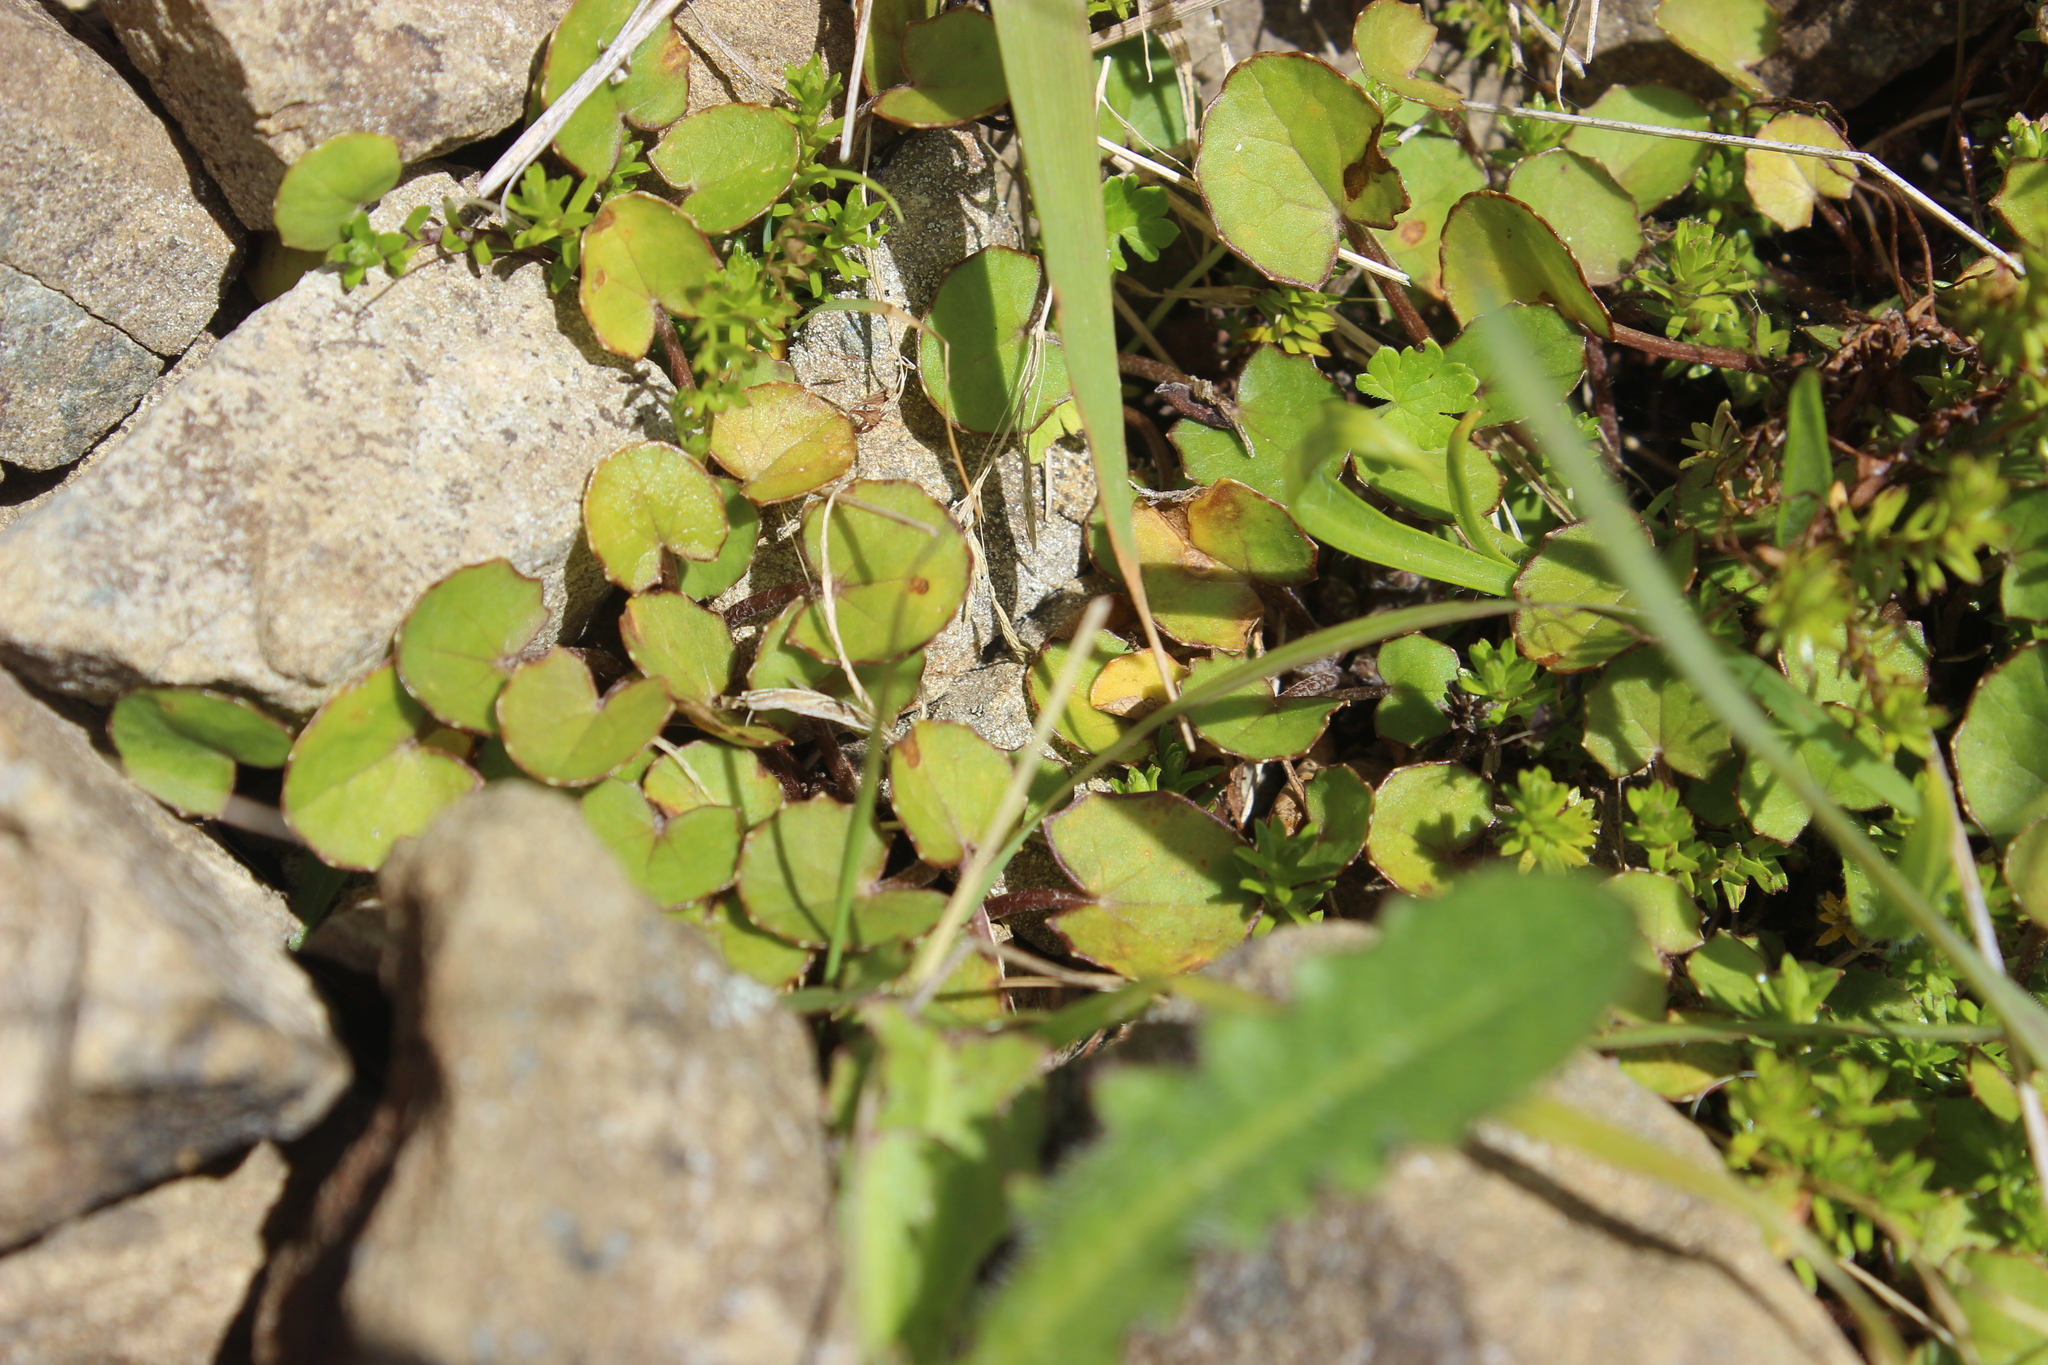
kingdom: Plantae
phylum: Tracheophyta
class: Magnoliopsida
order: Apiales
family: Apiaceae
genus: Centella
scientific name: Centella uniflora
